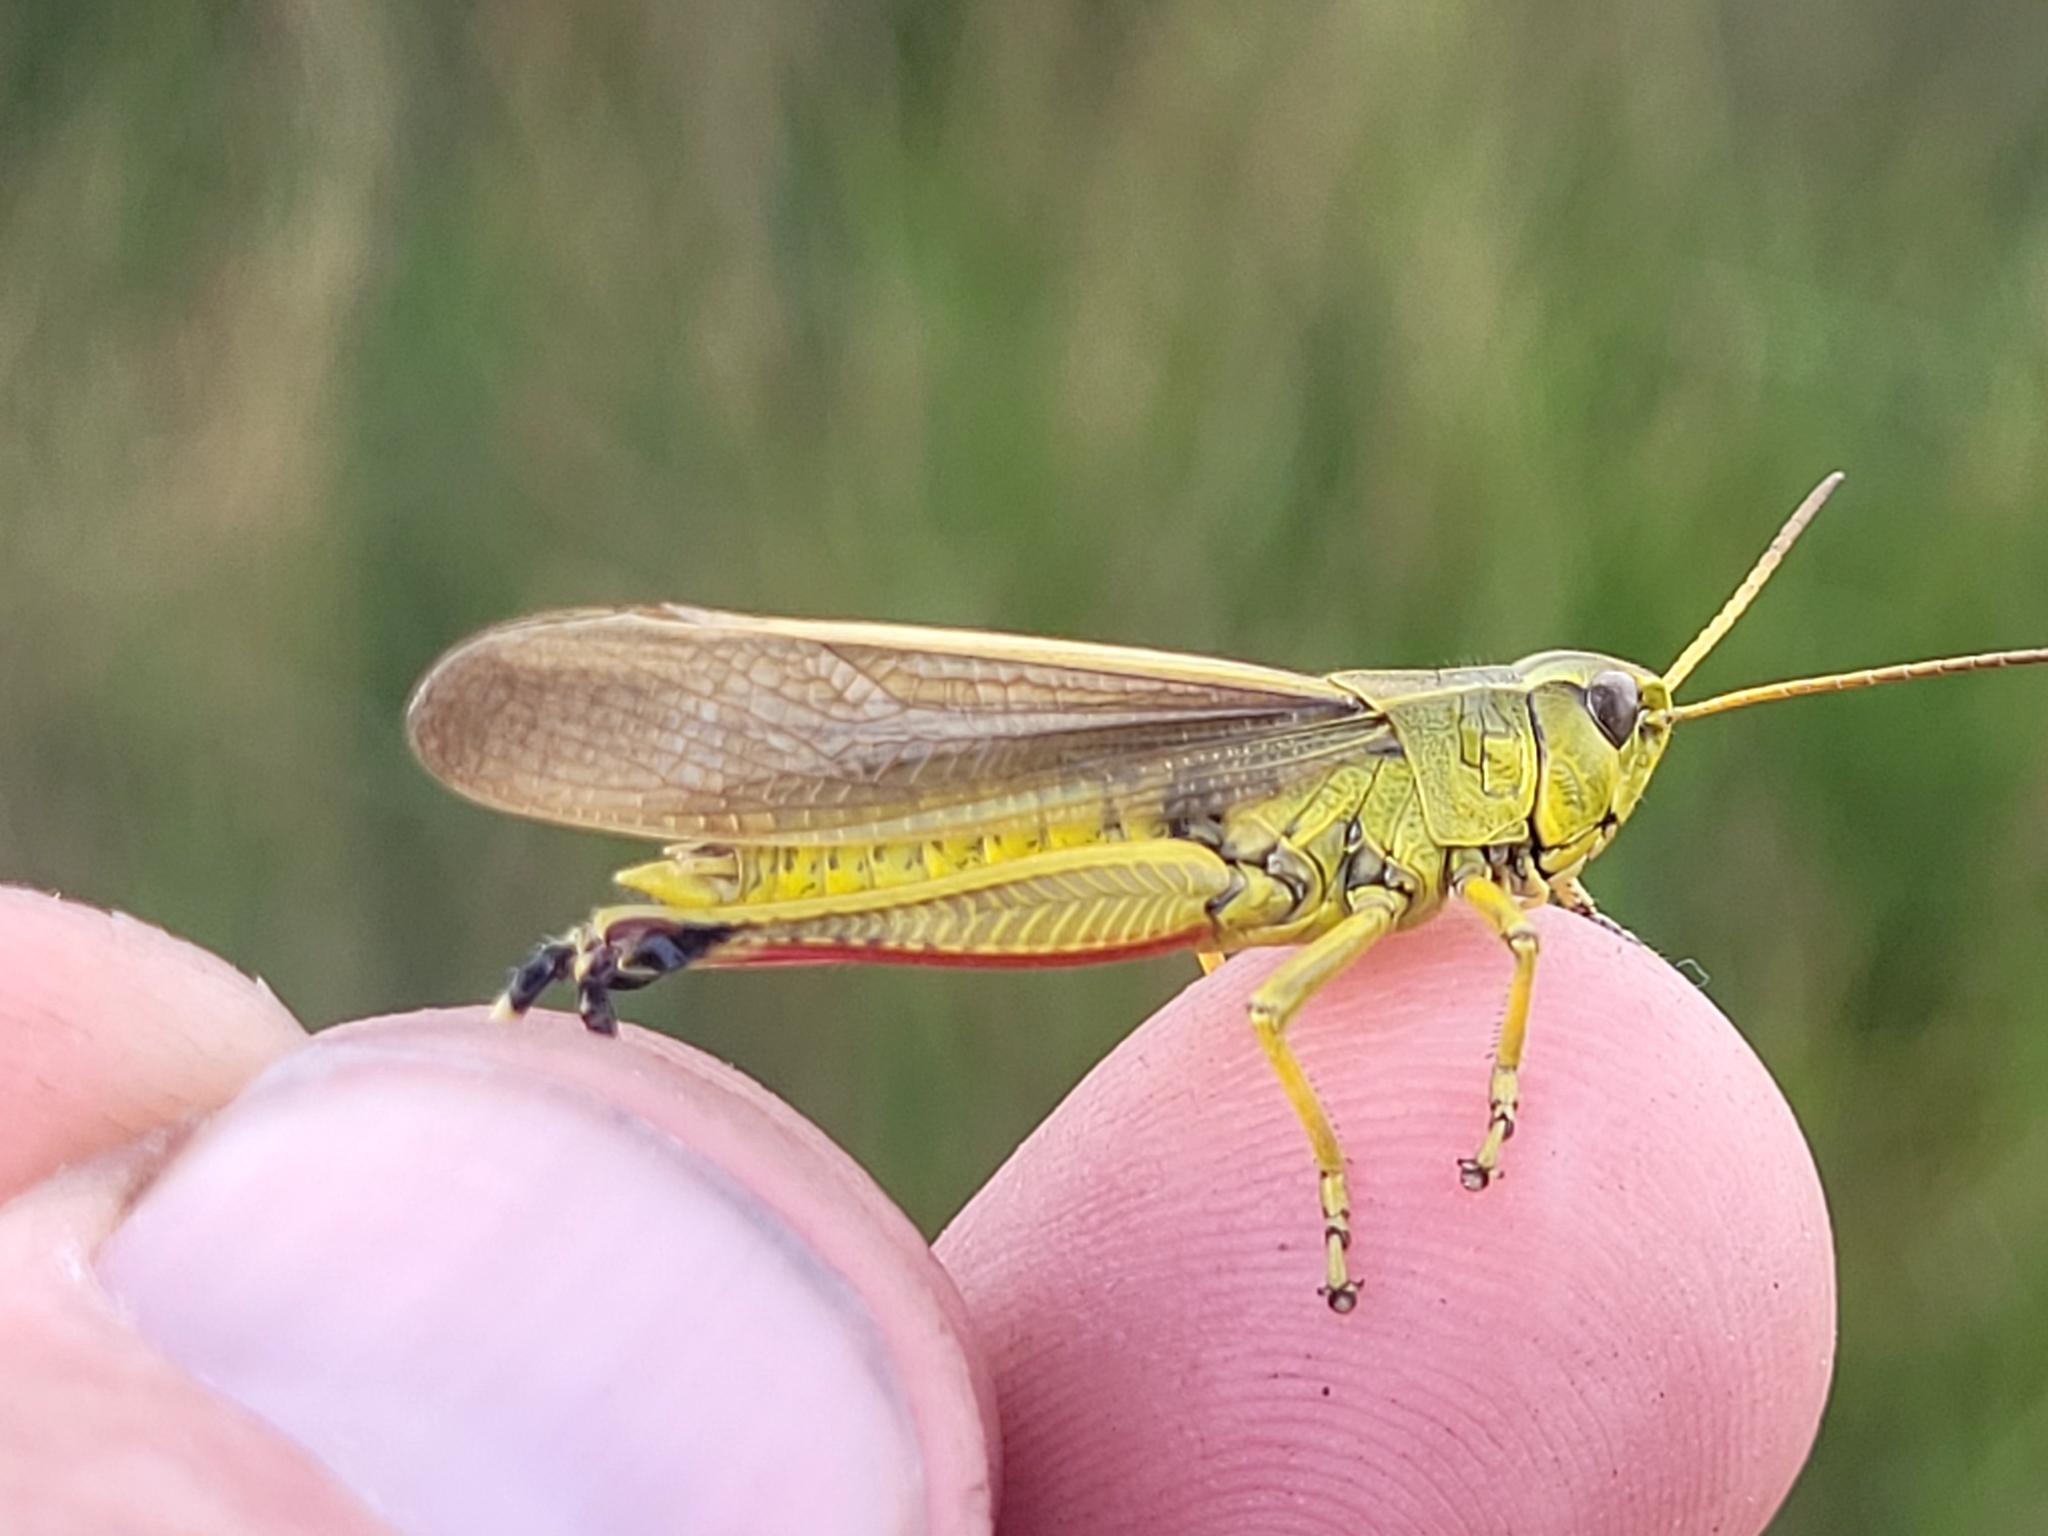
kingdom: Animalia
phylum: Arthropoda
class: Insecta
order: Orthoptera
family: Acrididae
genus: Stethophyma
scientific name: Stethophyma gracile
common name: Graceful sedge grasshopper
